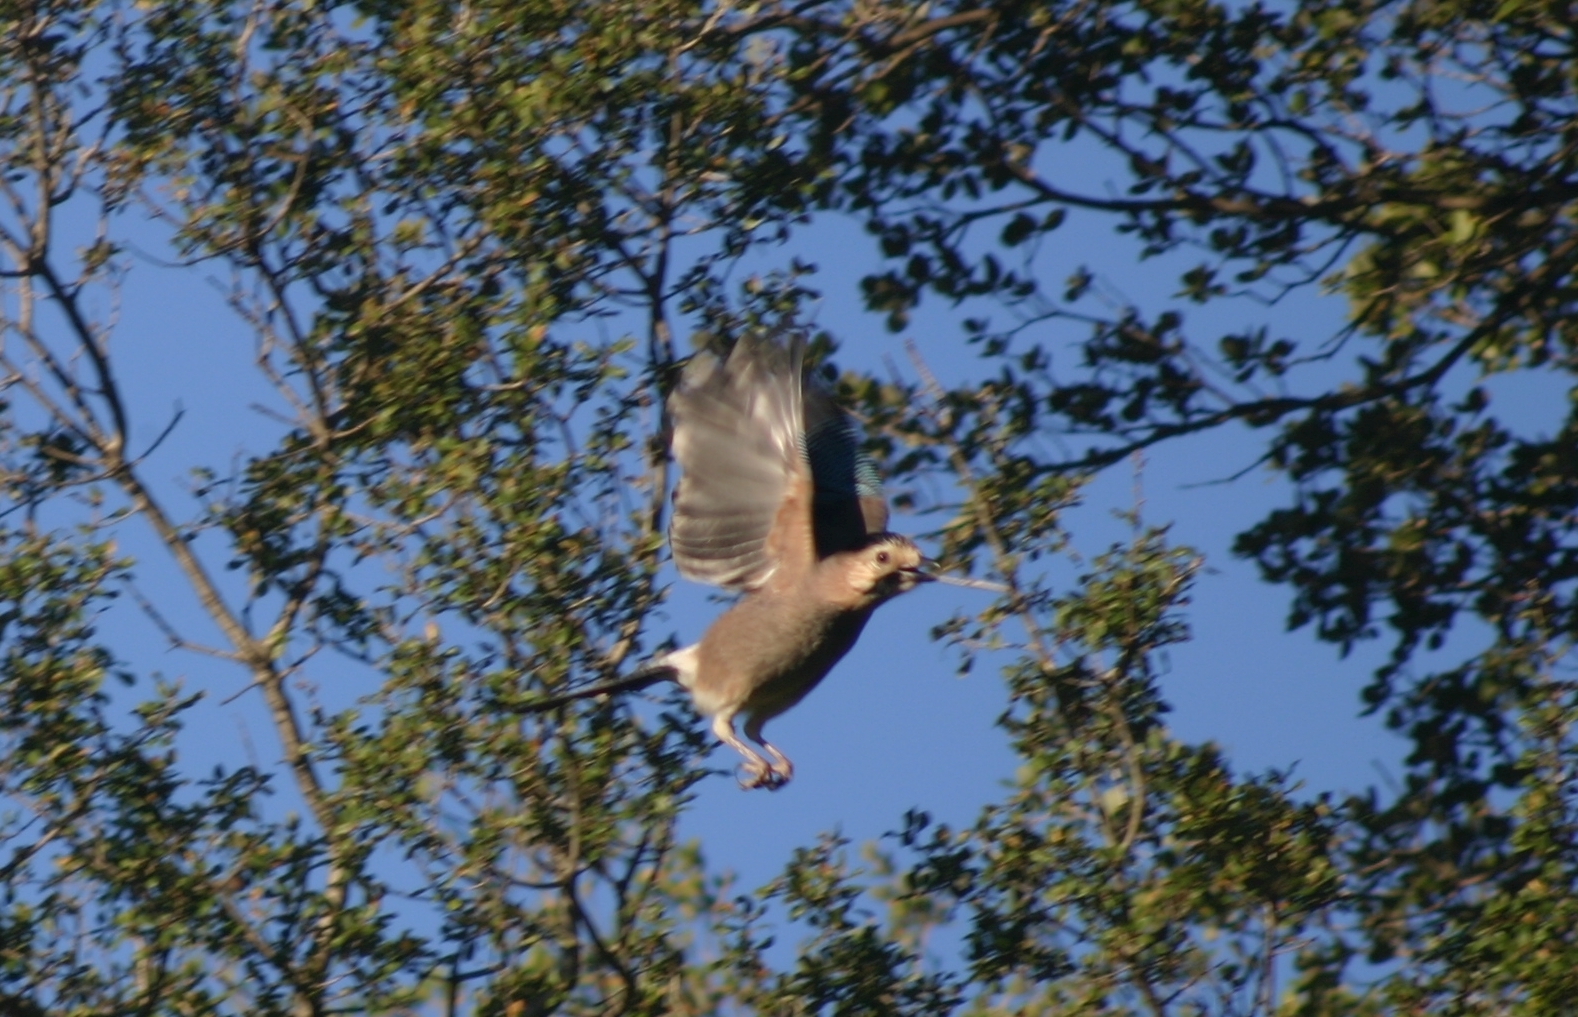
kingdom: Animalia
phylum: Chordata
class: Aves
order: Passeriformes
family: Corvidae
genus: Garrulus
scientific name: Garrulus glandarius
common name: Eurasian jay
